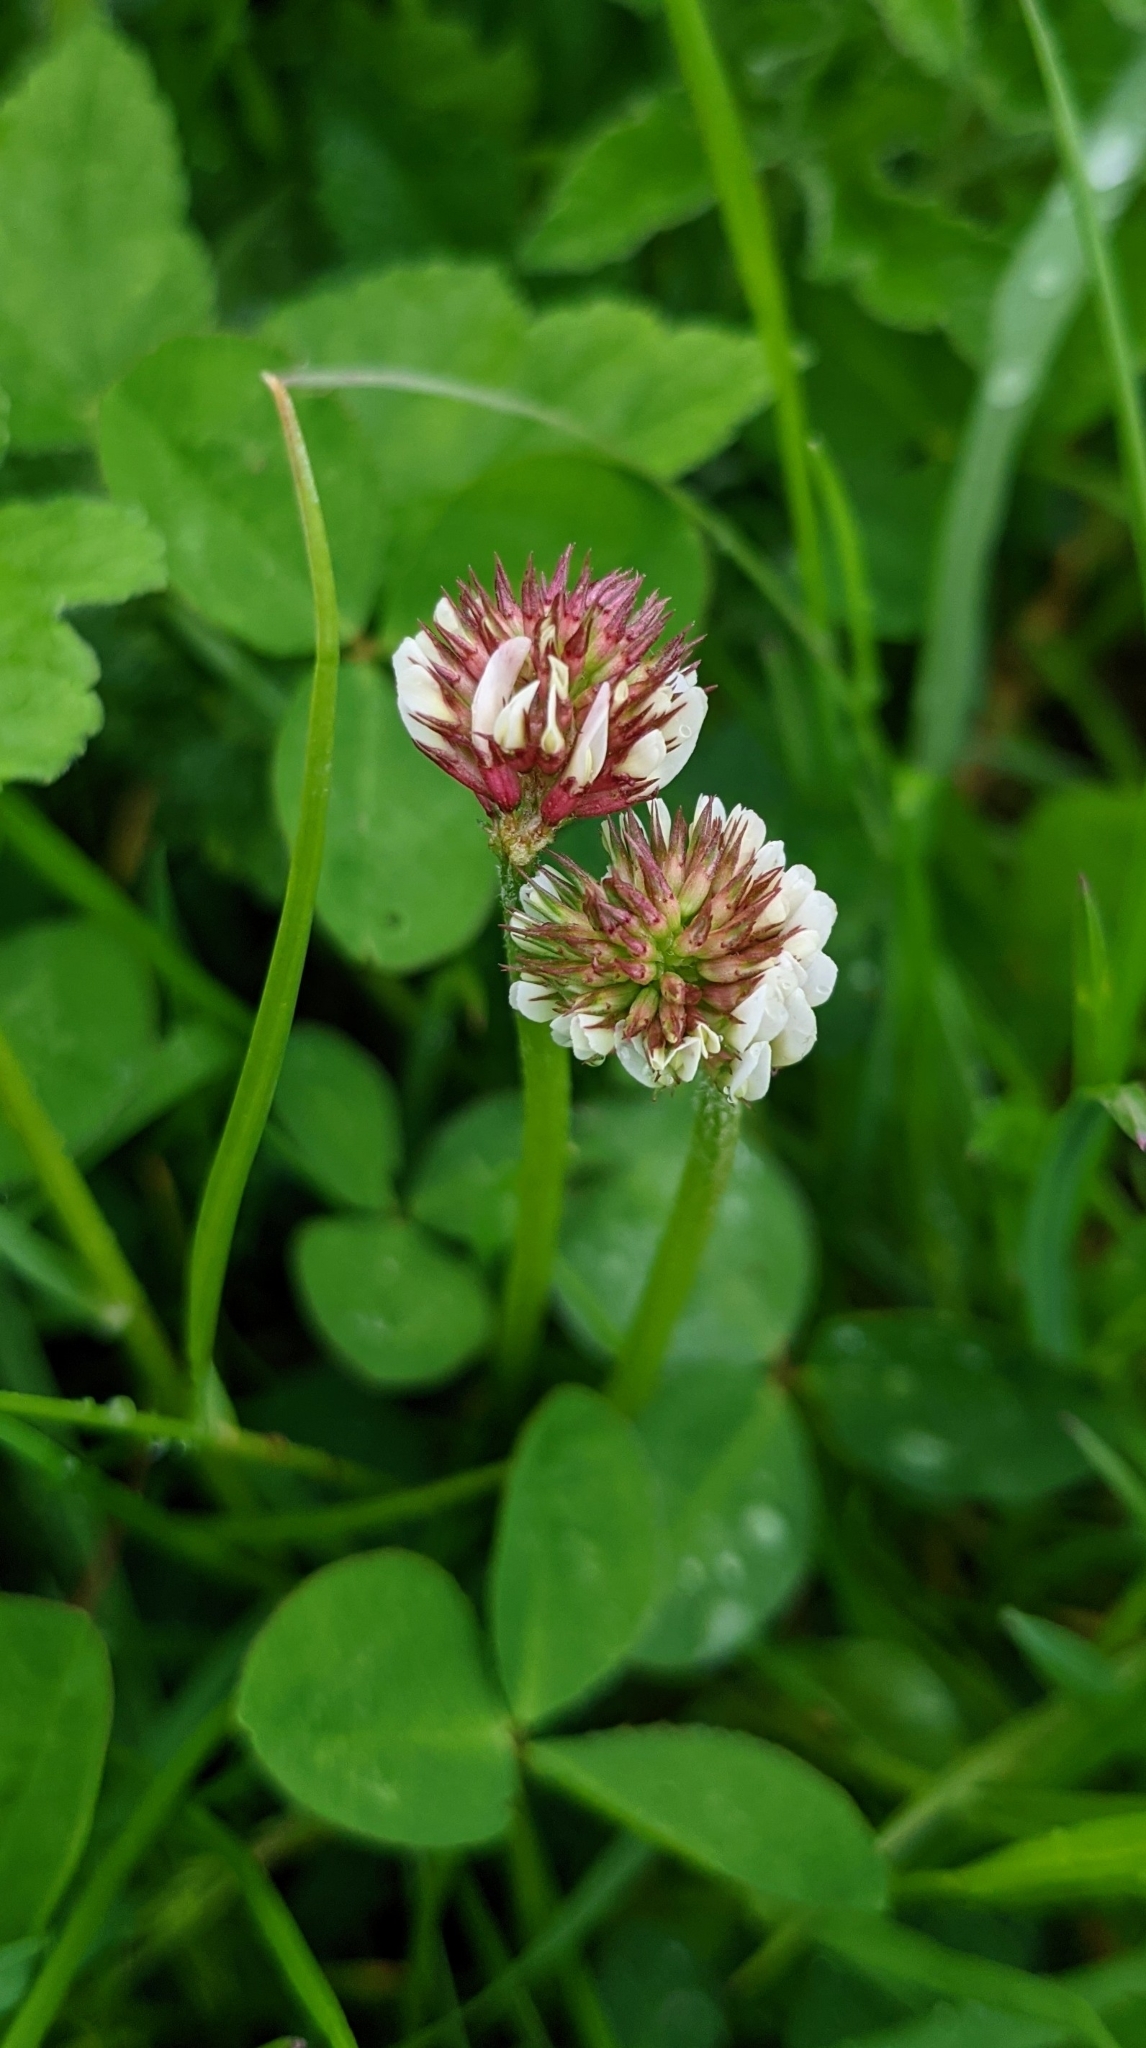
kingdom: Plantae
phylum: Tracheophyta
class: Magnoliopsida
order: Fabales
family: Fabaceae
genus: Trifolium
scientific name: Trifolium repens
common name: White clover
